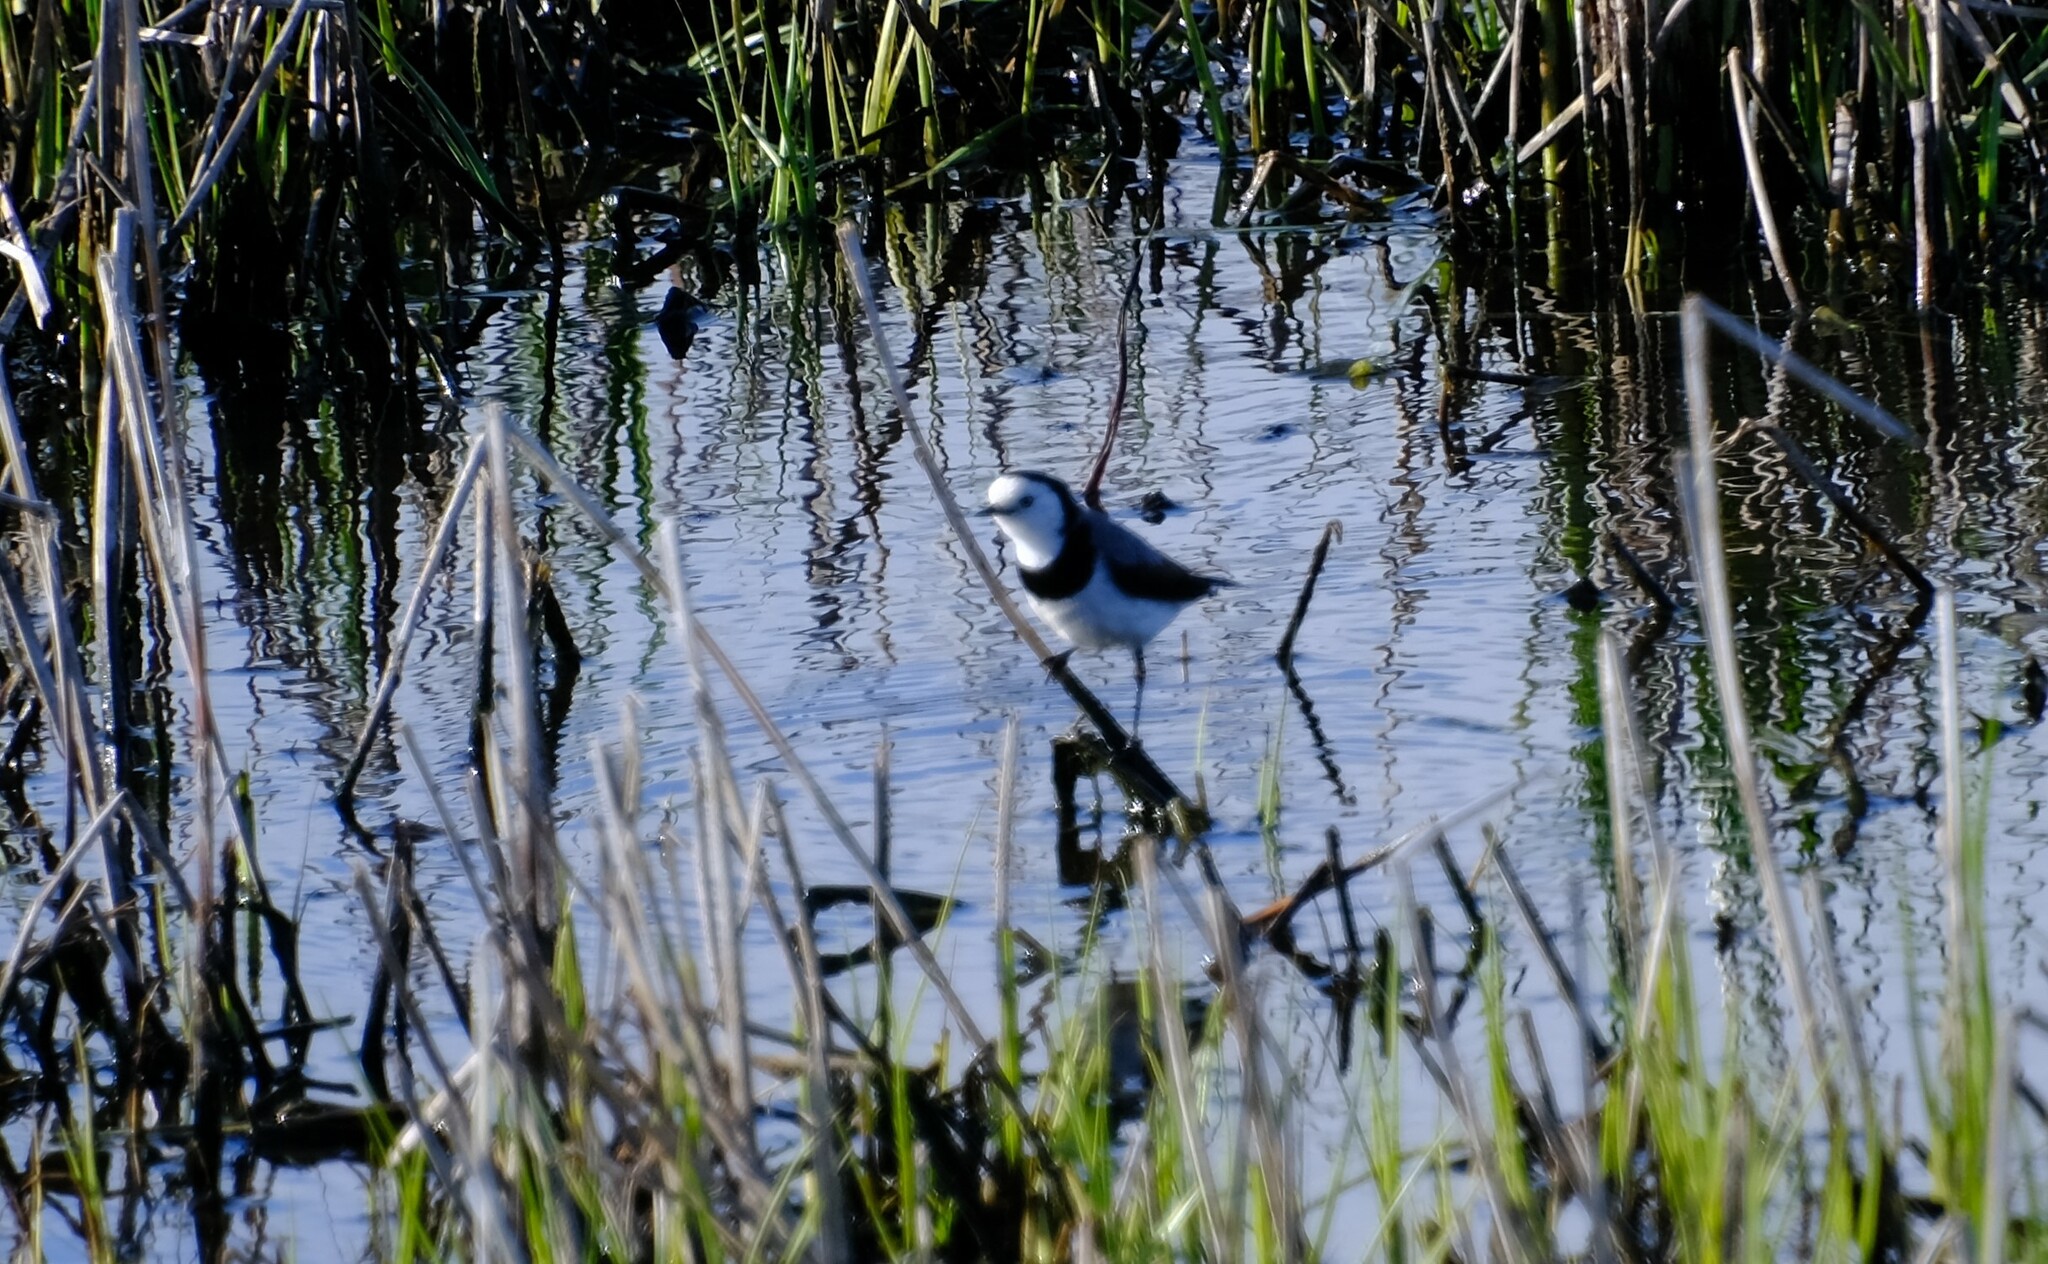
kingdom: Animalia
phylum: Chordata
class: Aves
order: Passeriformes
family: Meliphagidae
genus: Epthianura
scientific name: Epthianura albifrons
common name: White-fronted chat
